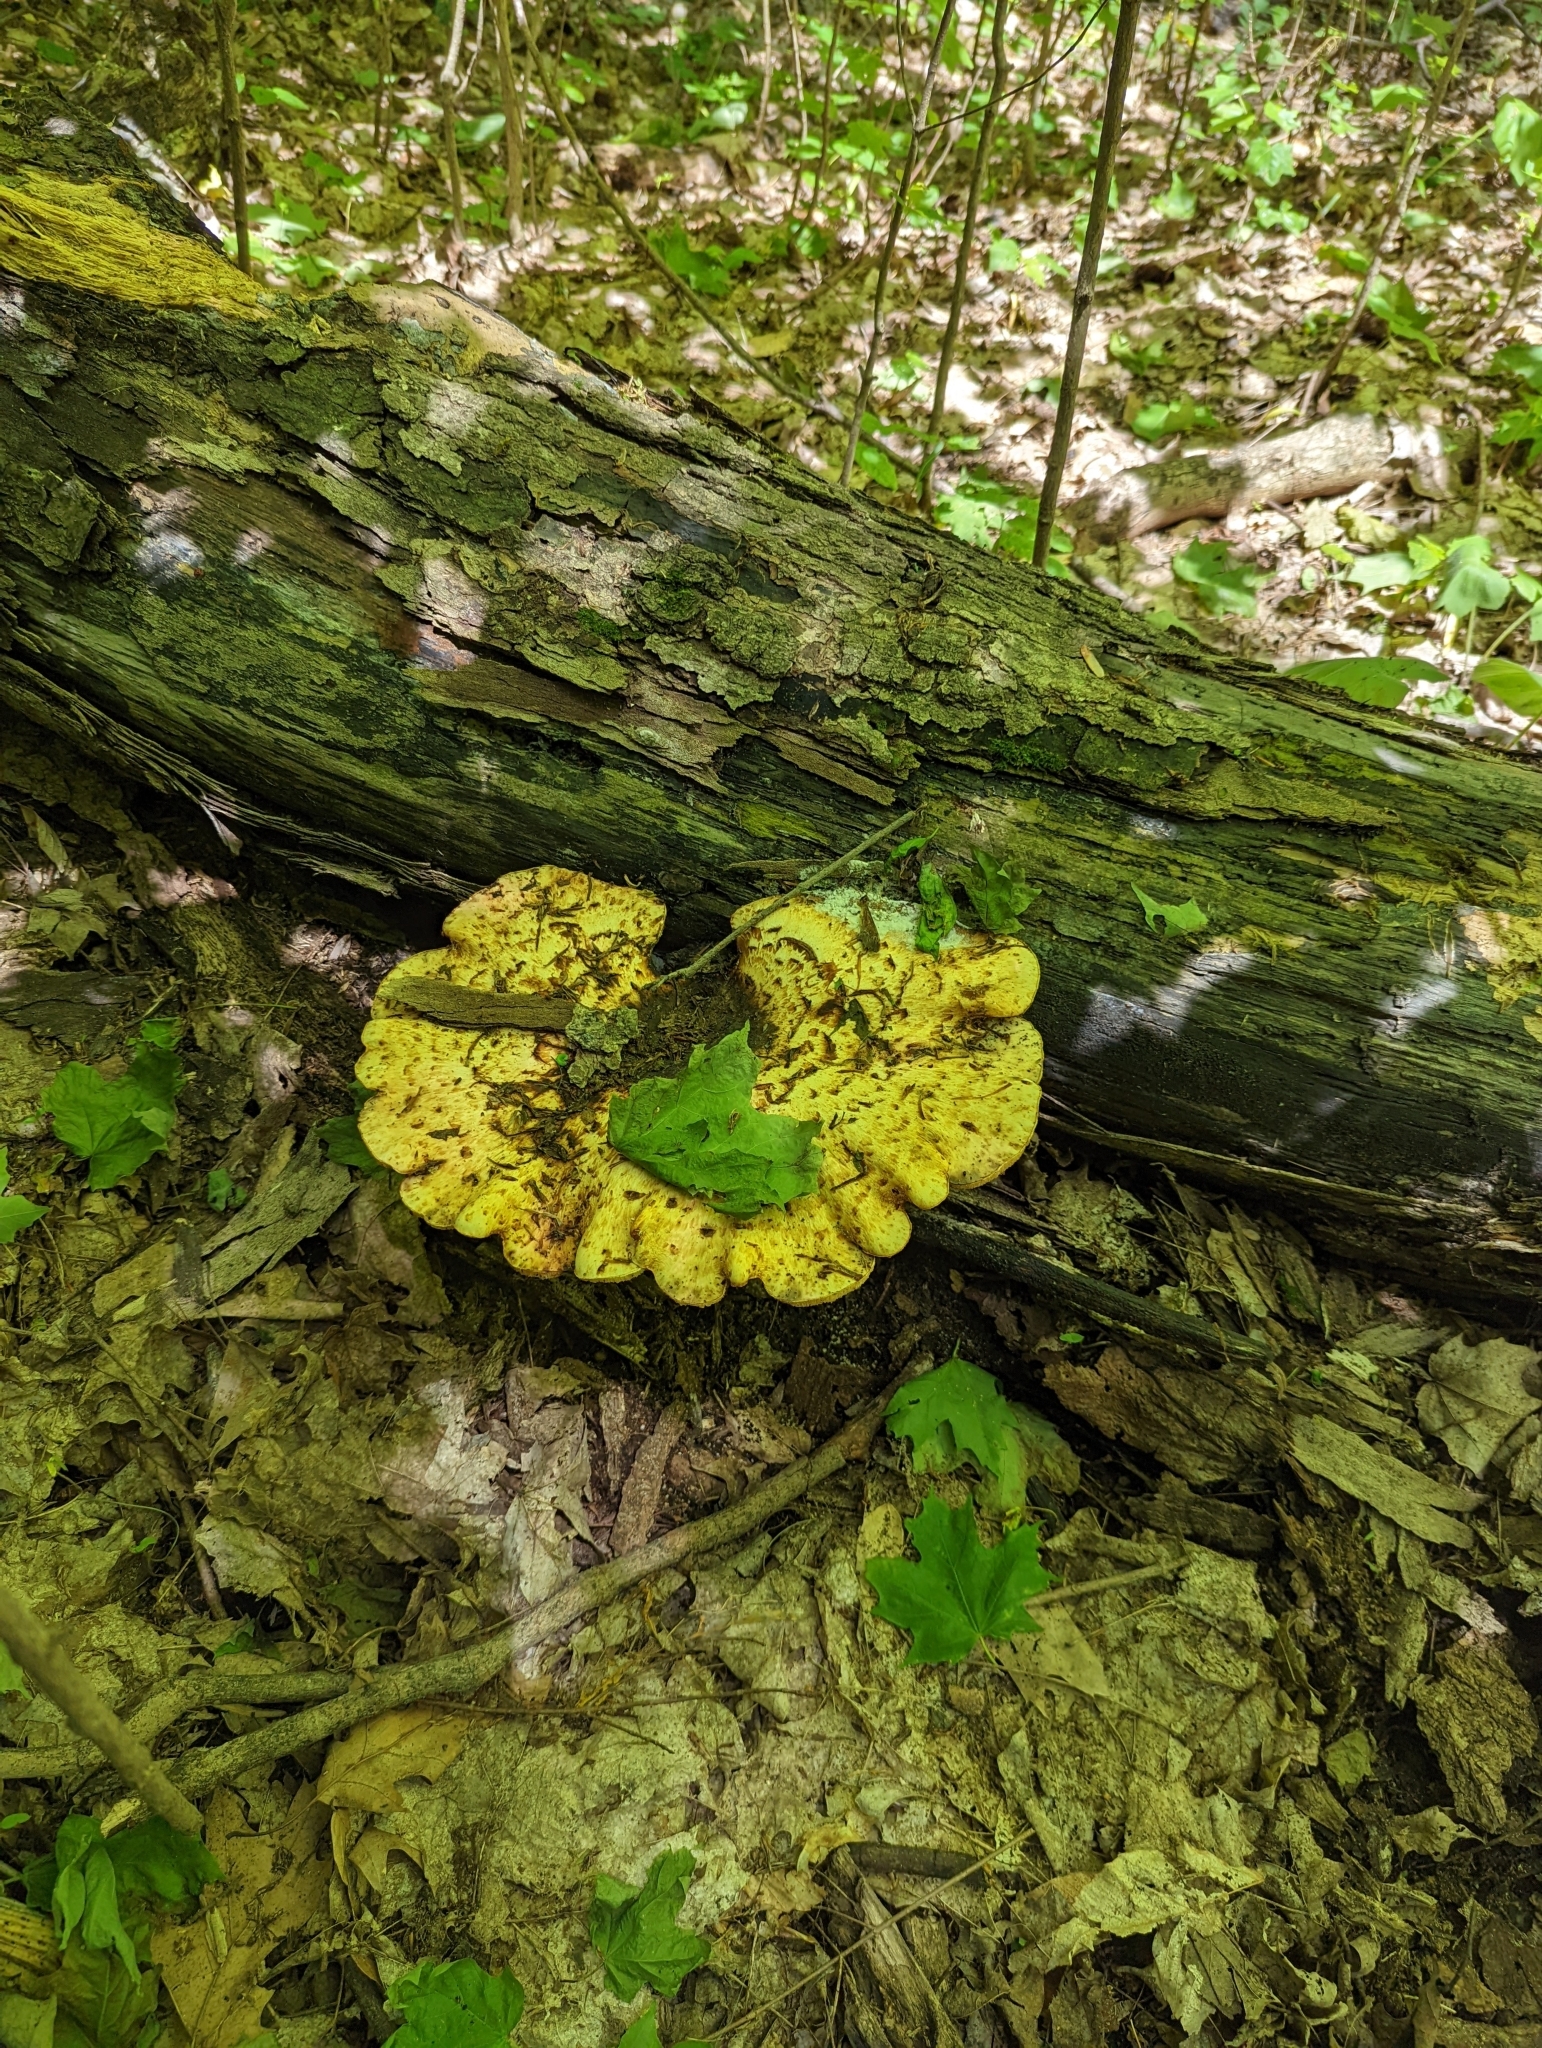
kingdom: Fungi
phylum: Basidiomycota
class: Agaricomycetes
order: Polyporales
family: Polyporaceae
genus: Cerioporus
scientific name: Cerioporus squamosus
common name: Dryad's saddle
